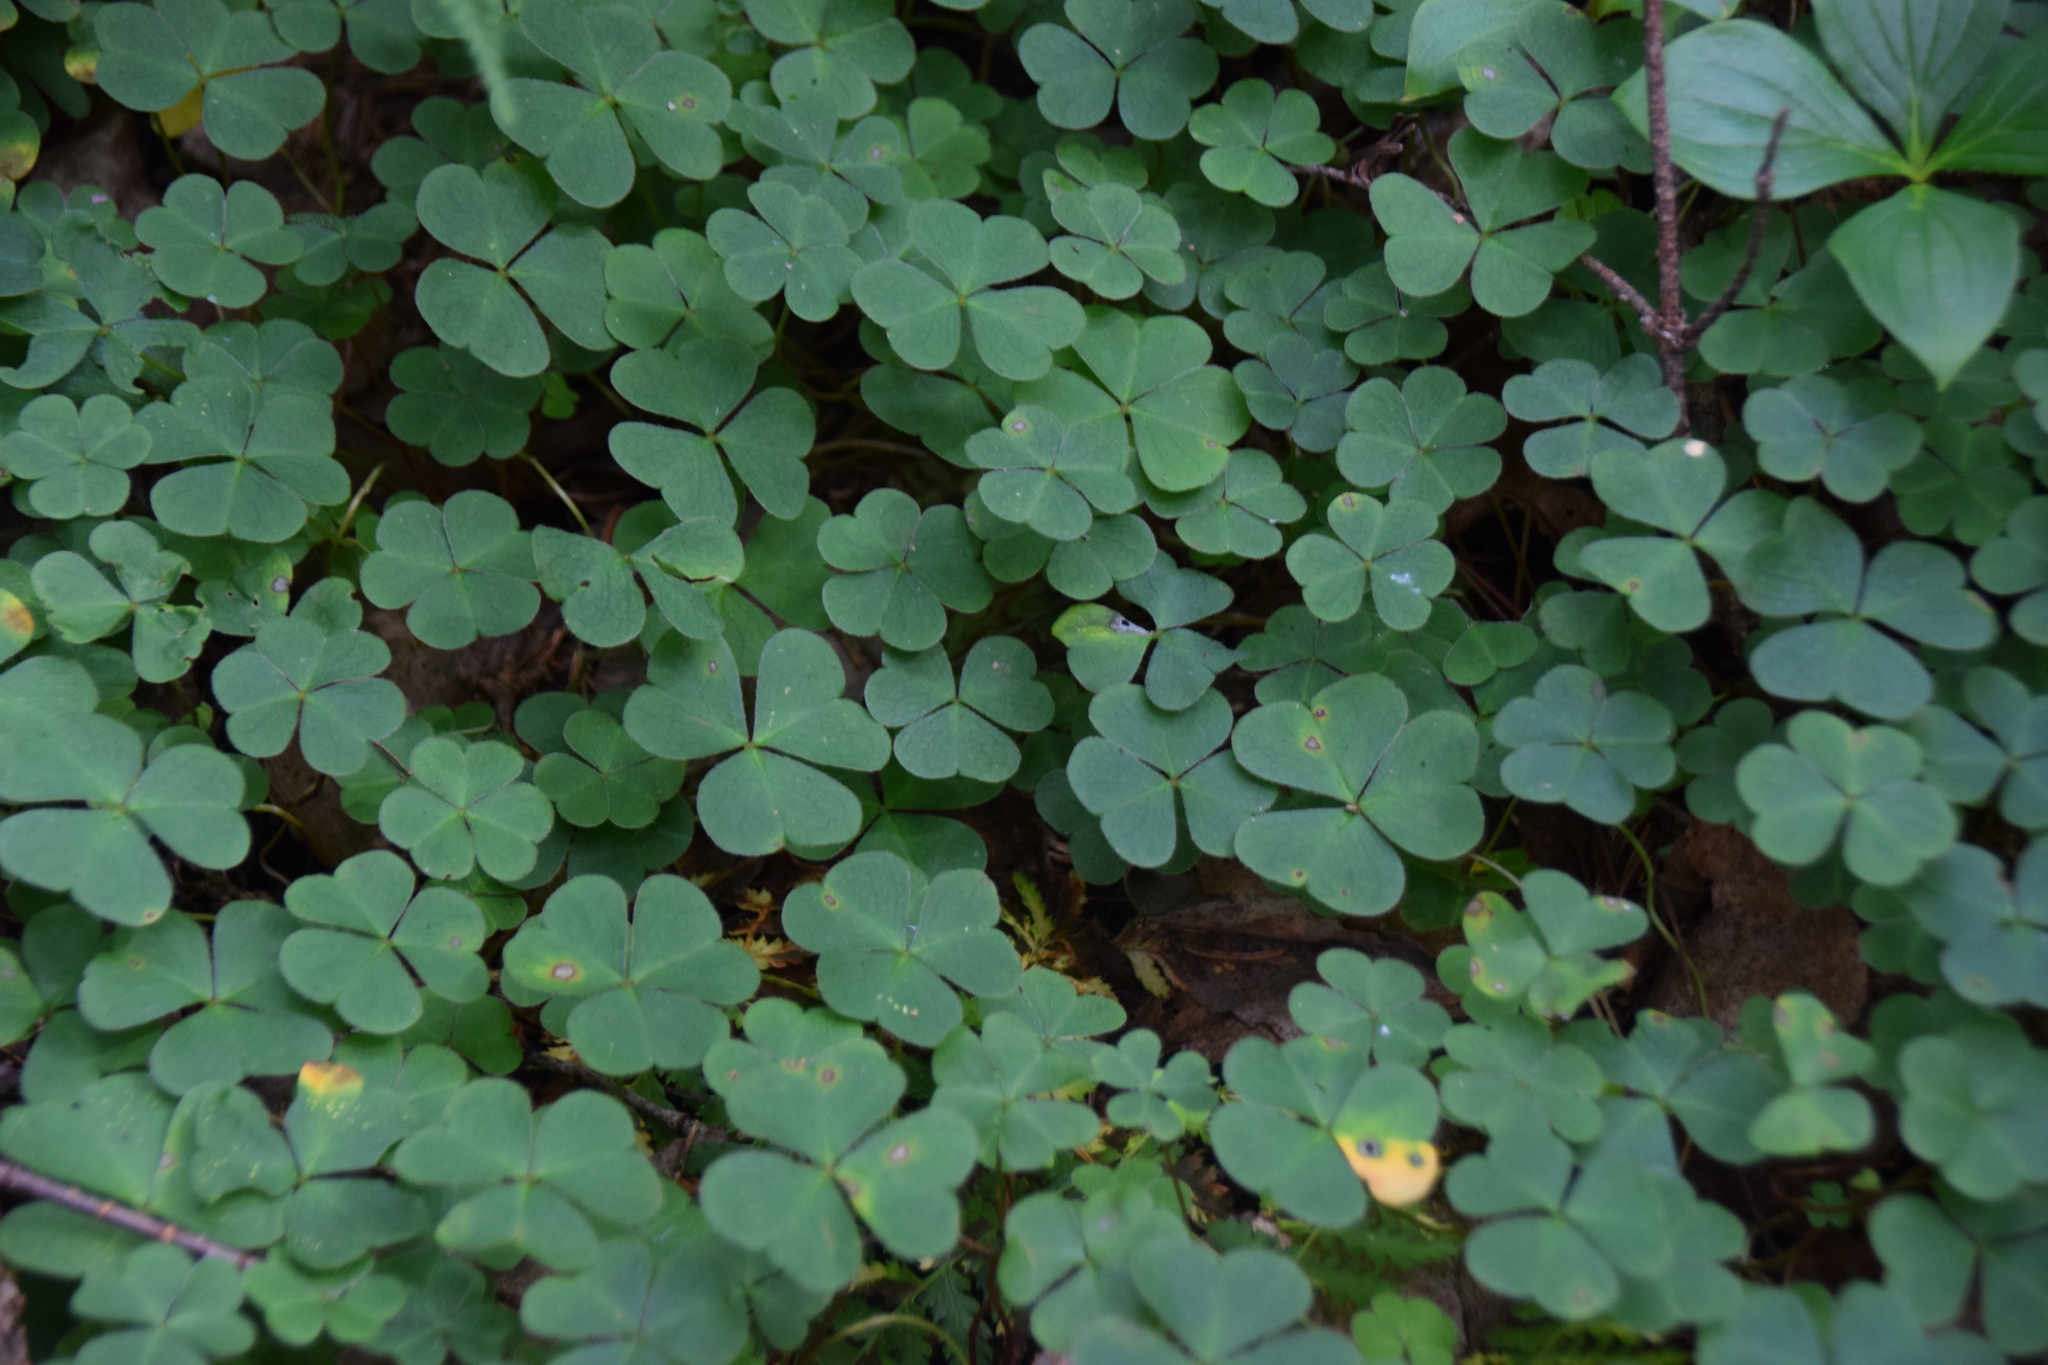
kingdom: Plantae
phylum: Tracheophyta
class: Magnoliopsida
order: Oxalidales
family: Oxalidaceae
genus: Oxalis
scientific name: Oxalis montana
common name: American wood-sorrel
